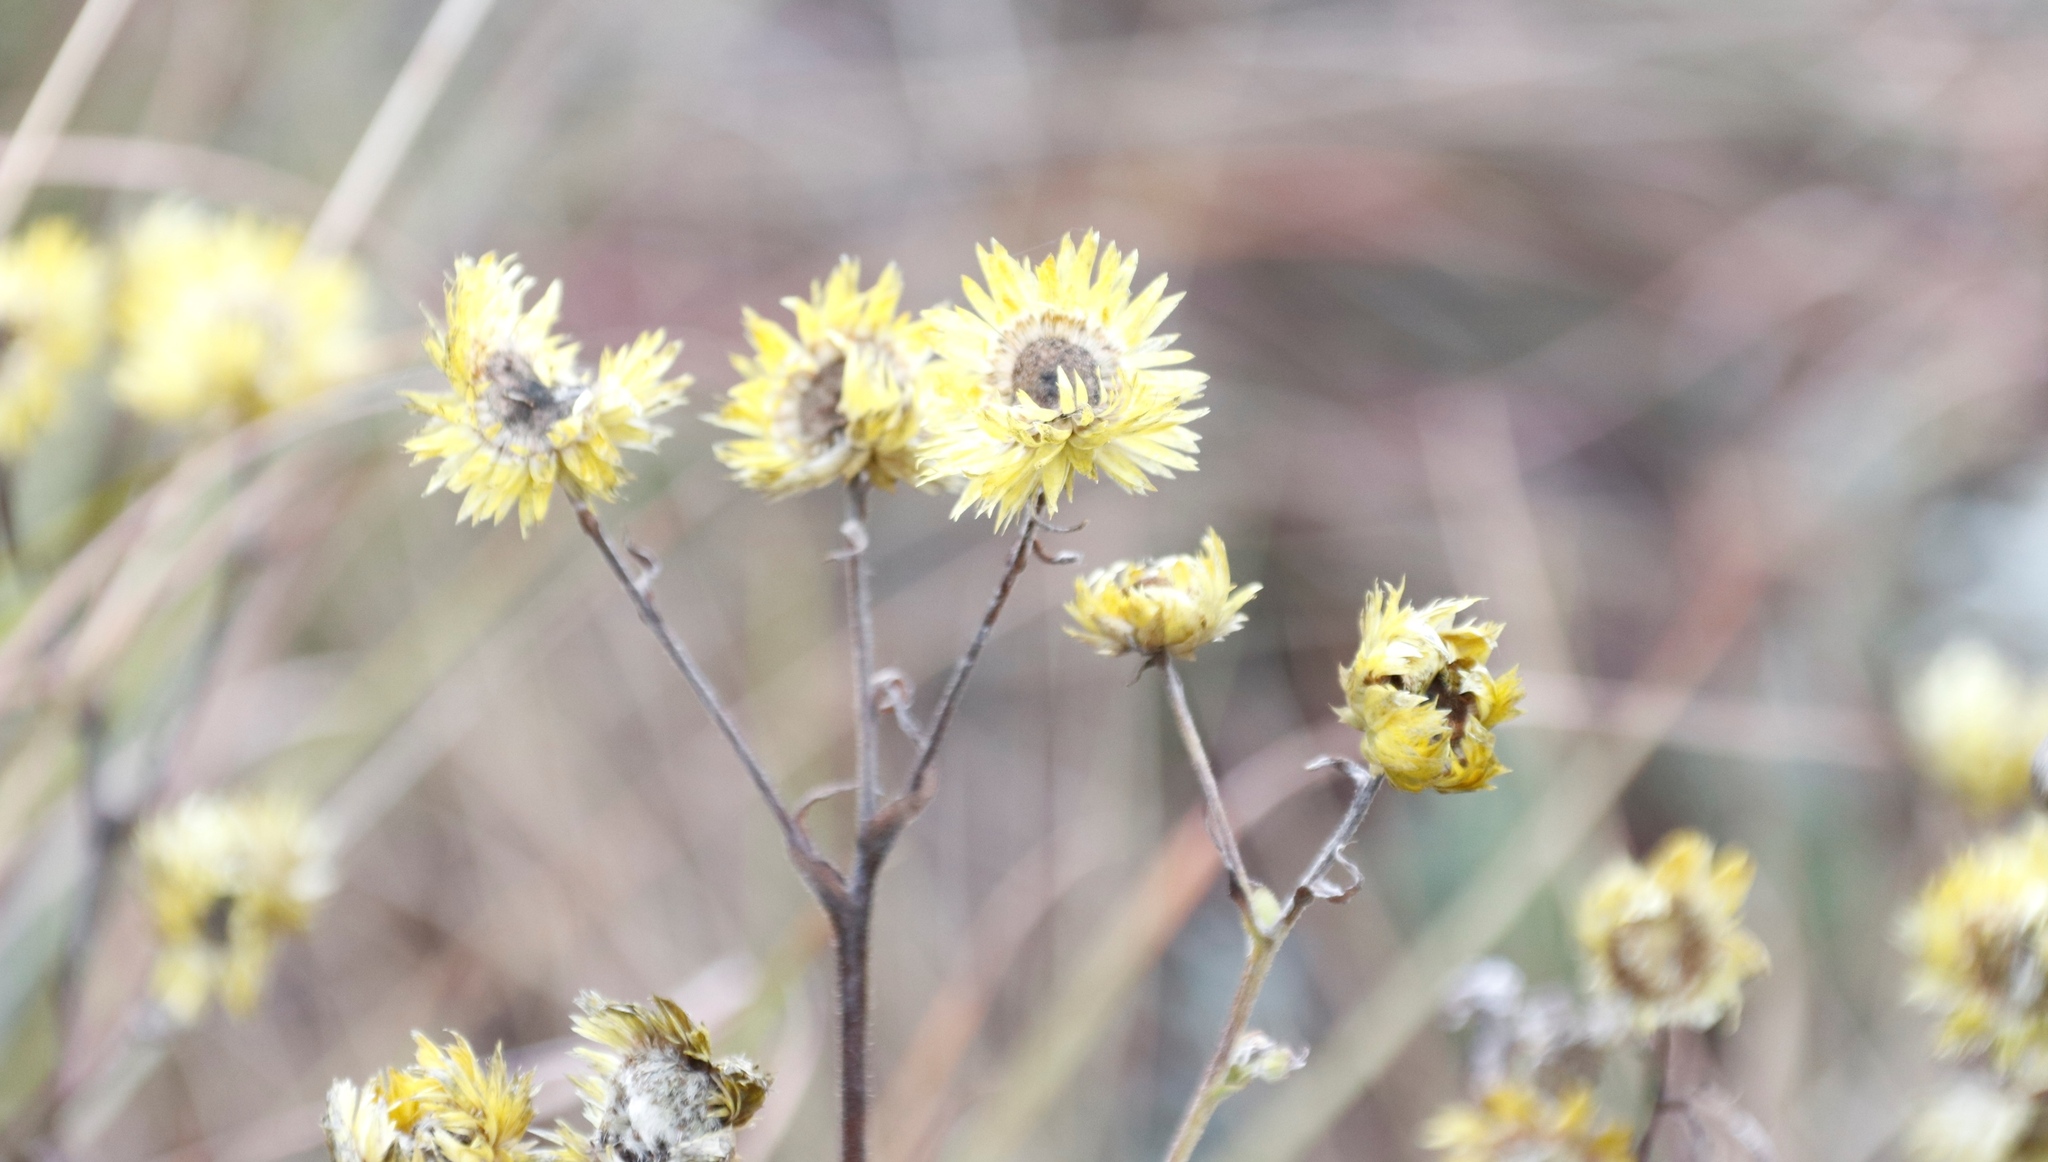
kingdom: Plantae
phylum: Tracheophyta
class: Magnoliopsida
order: Asterales
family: Asteraceae
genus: Helichrysum
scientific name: Helichrysum cooperi
